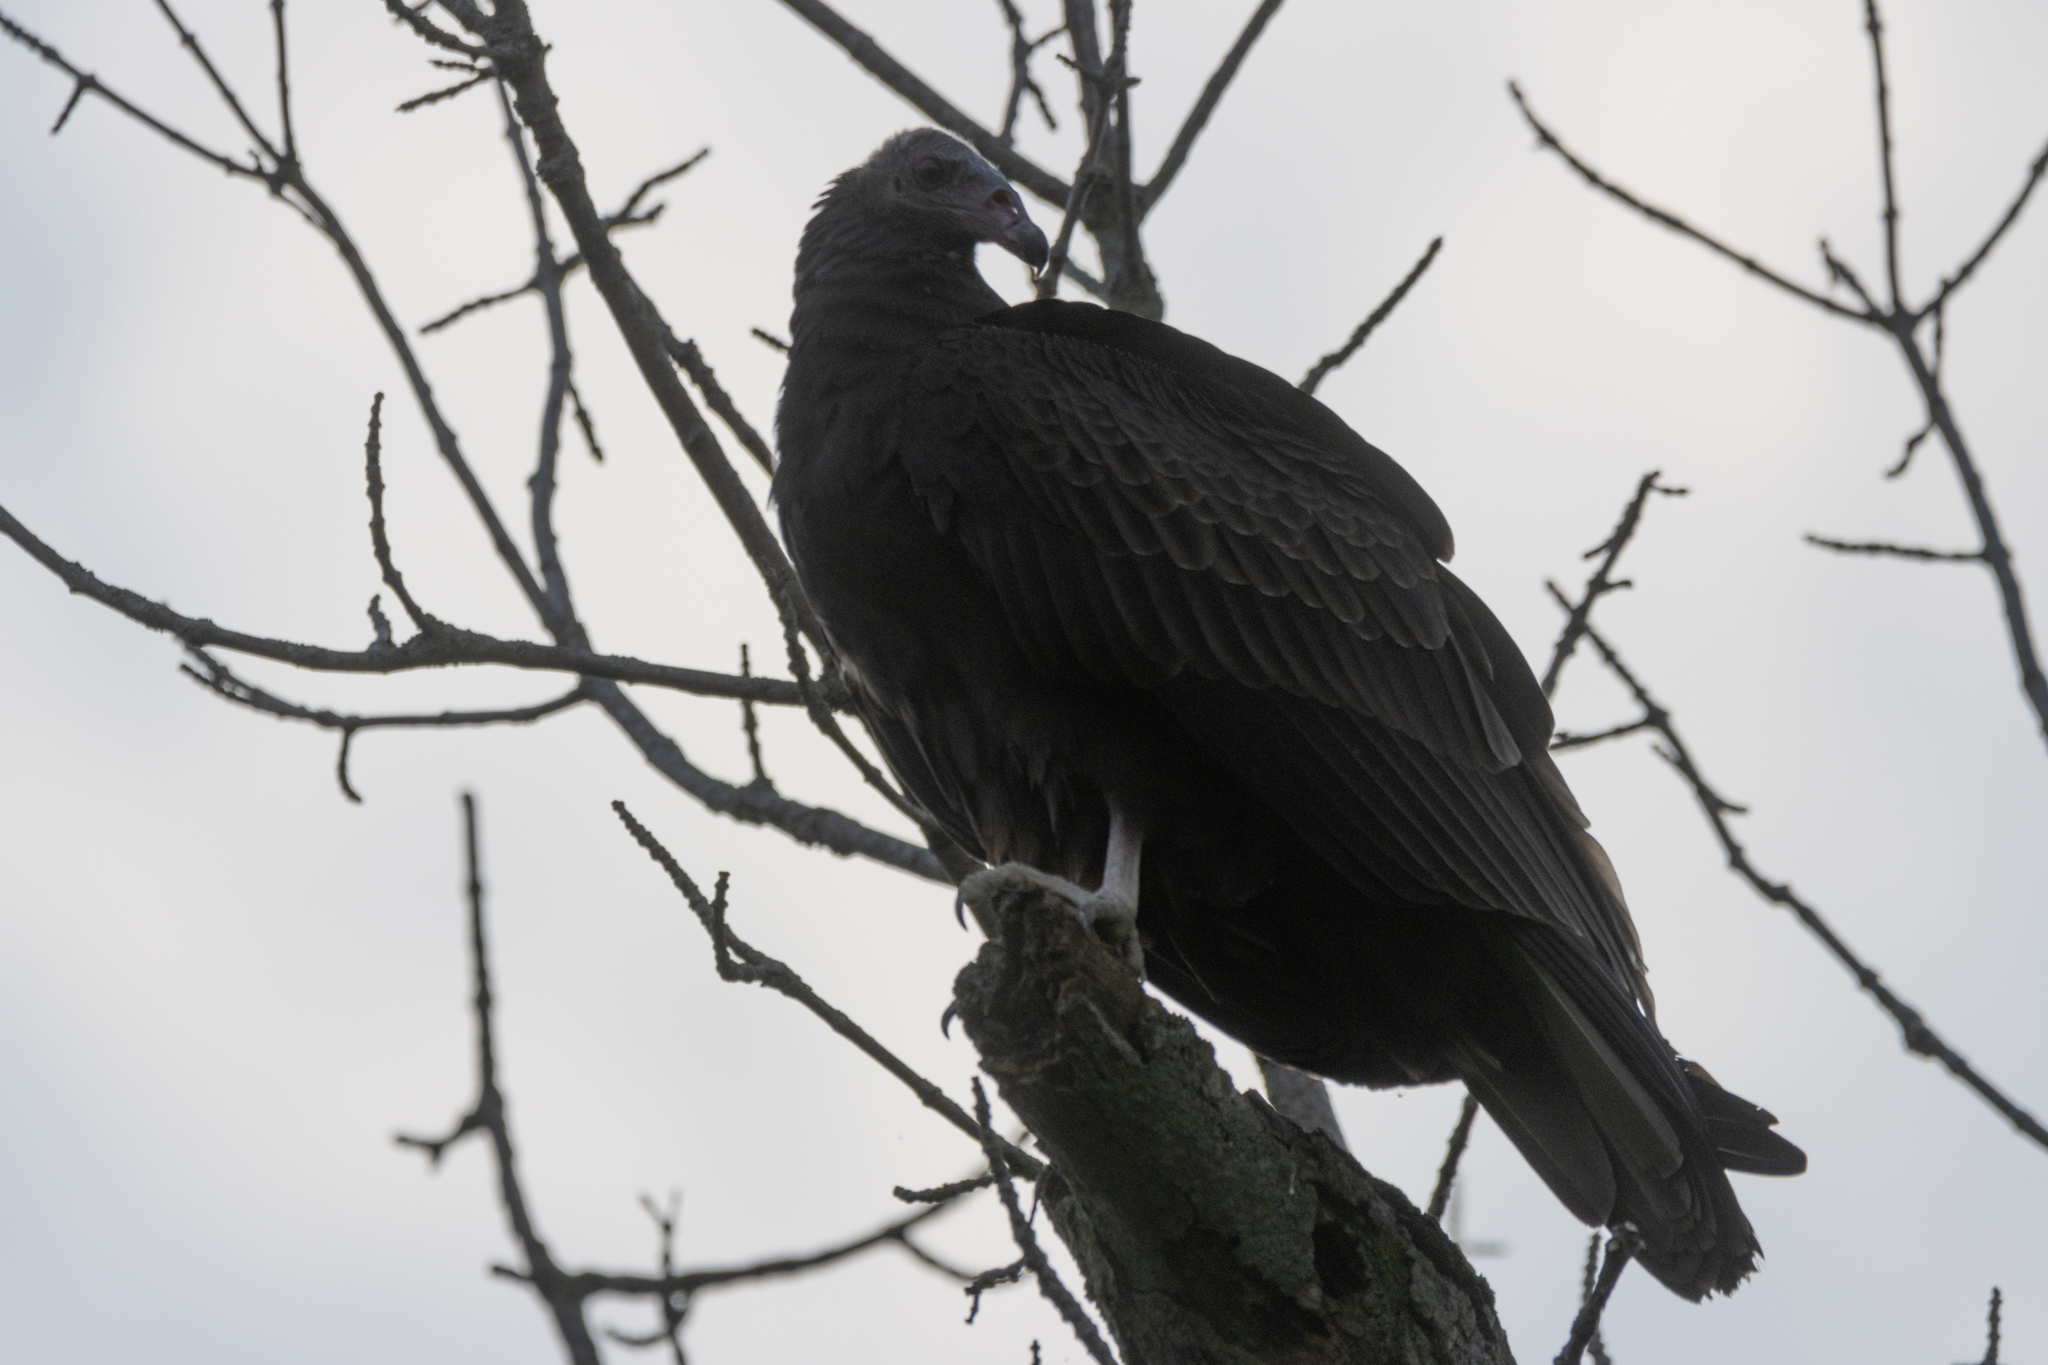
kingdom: Animalia
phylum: Chordata
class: Aves
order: Accipitriformes
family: Cathartidae
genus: Cathartes
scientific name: Cathartes aura
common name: Turkey vulture
